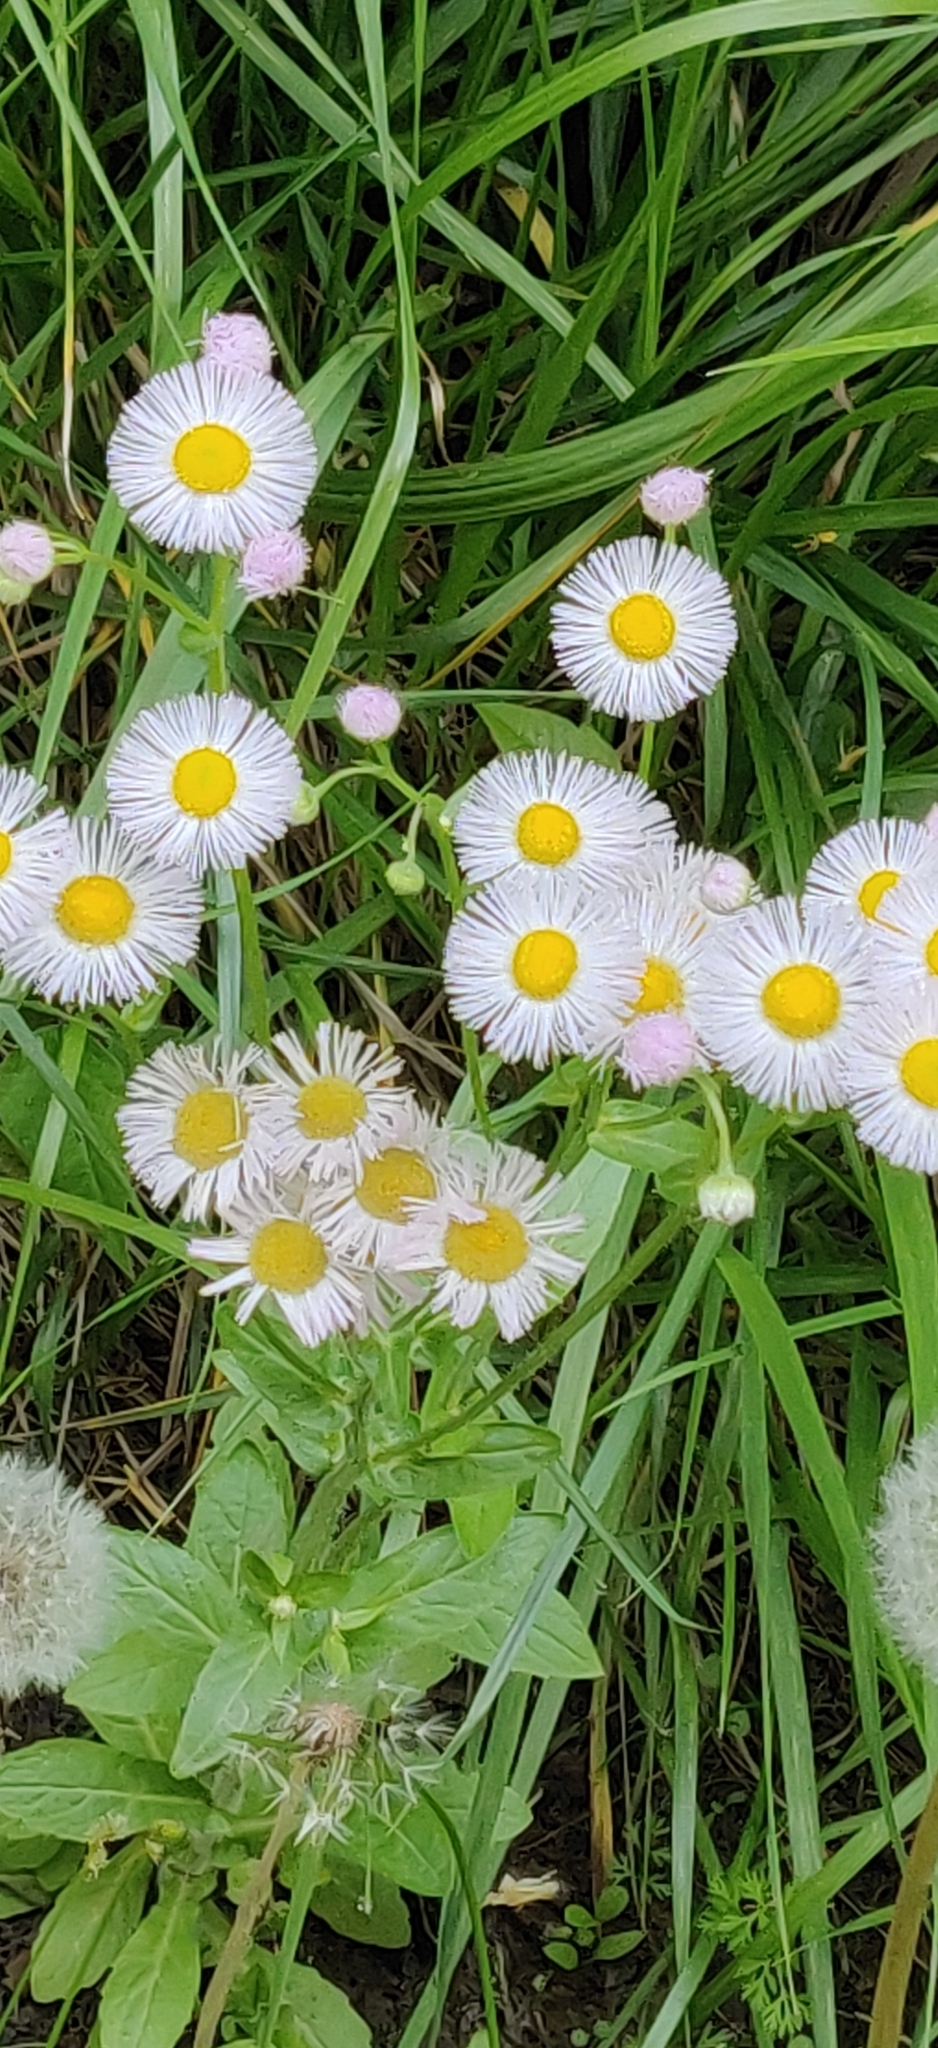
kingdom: Plantae
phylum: Tracheophyta
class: Magnoliopsida
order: Asterales
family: Asteraceae
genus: Erigeron
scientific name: Erigeron philadelphicus
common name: Robin's-plantain
